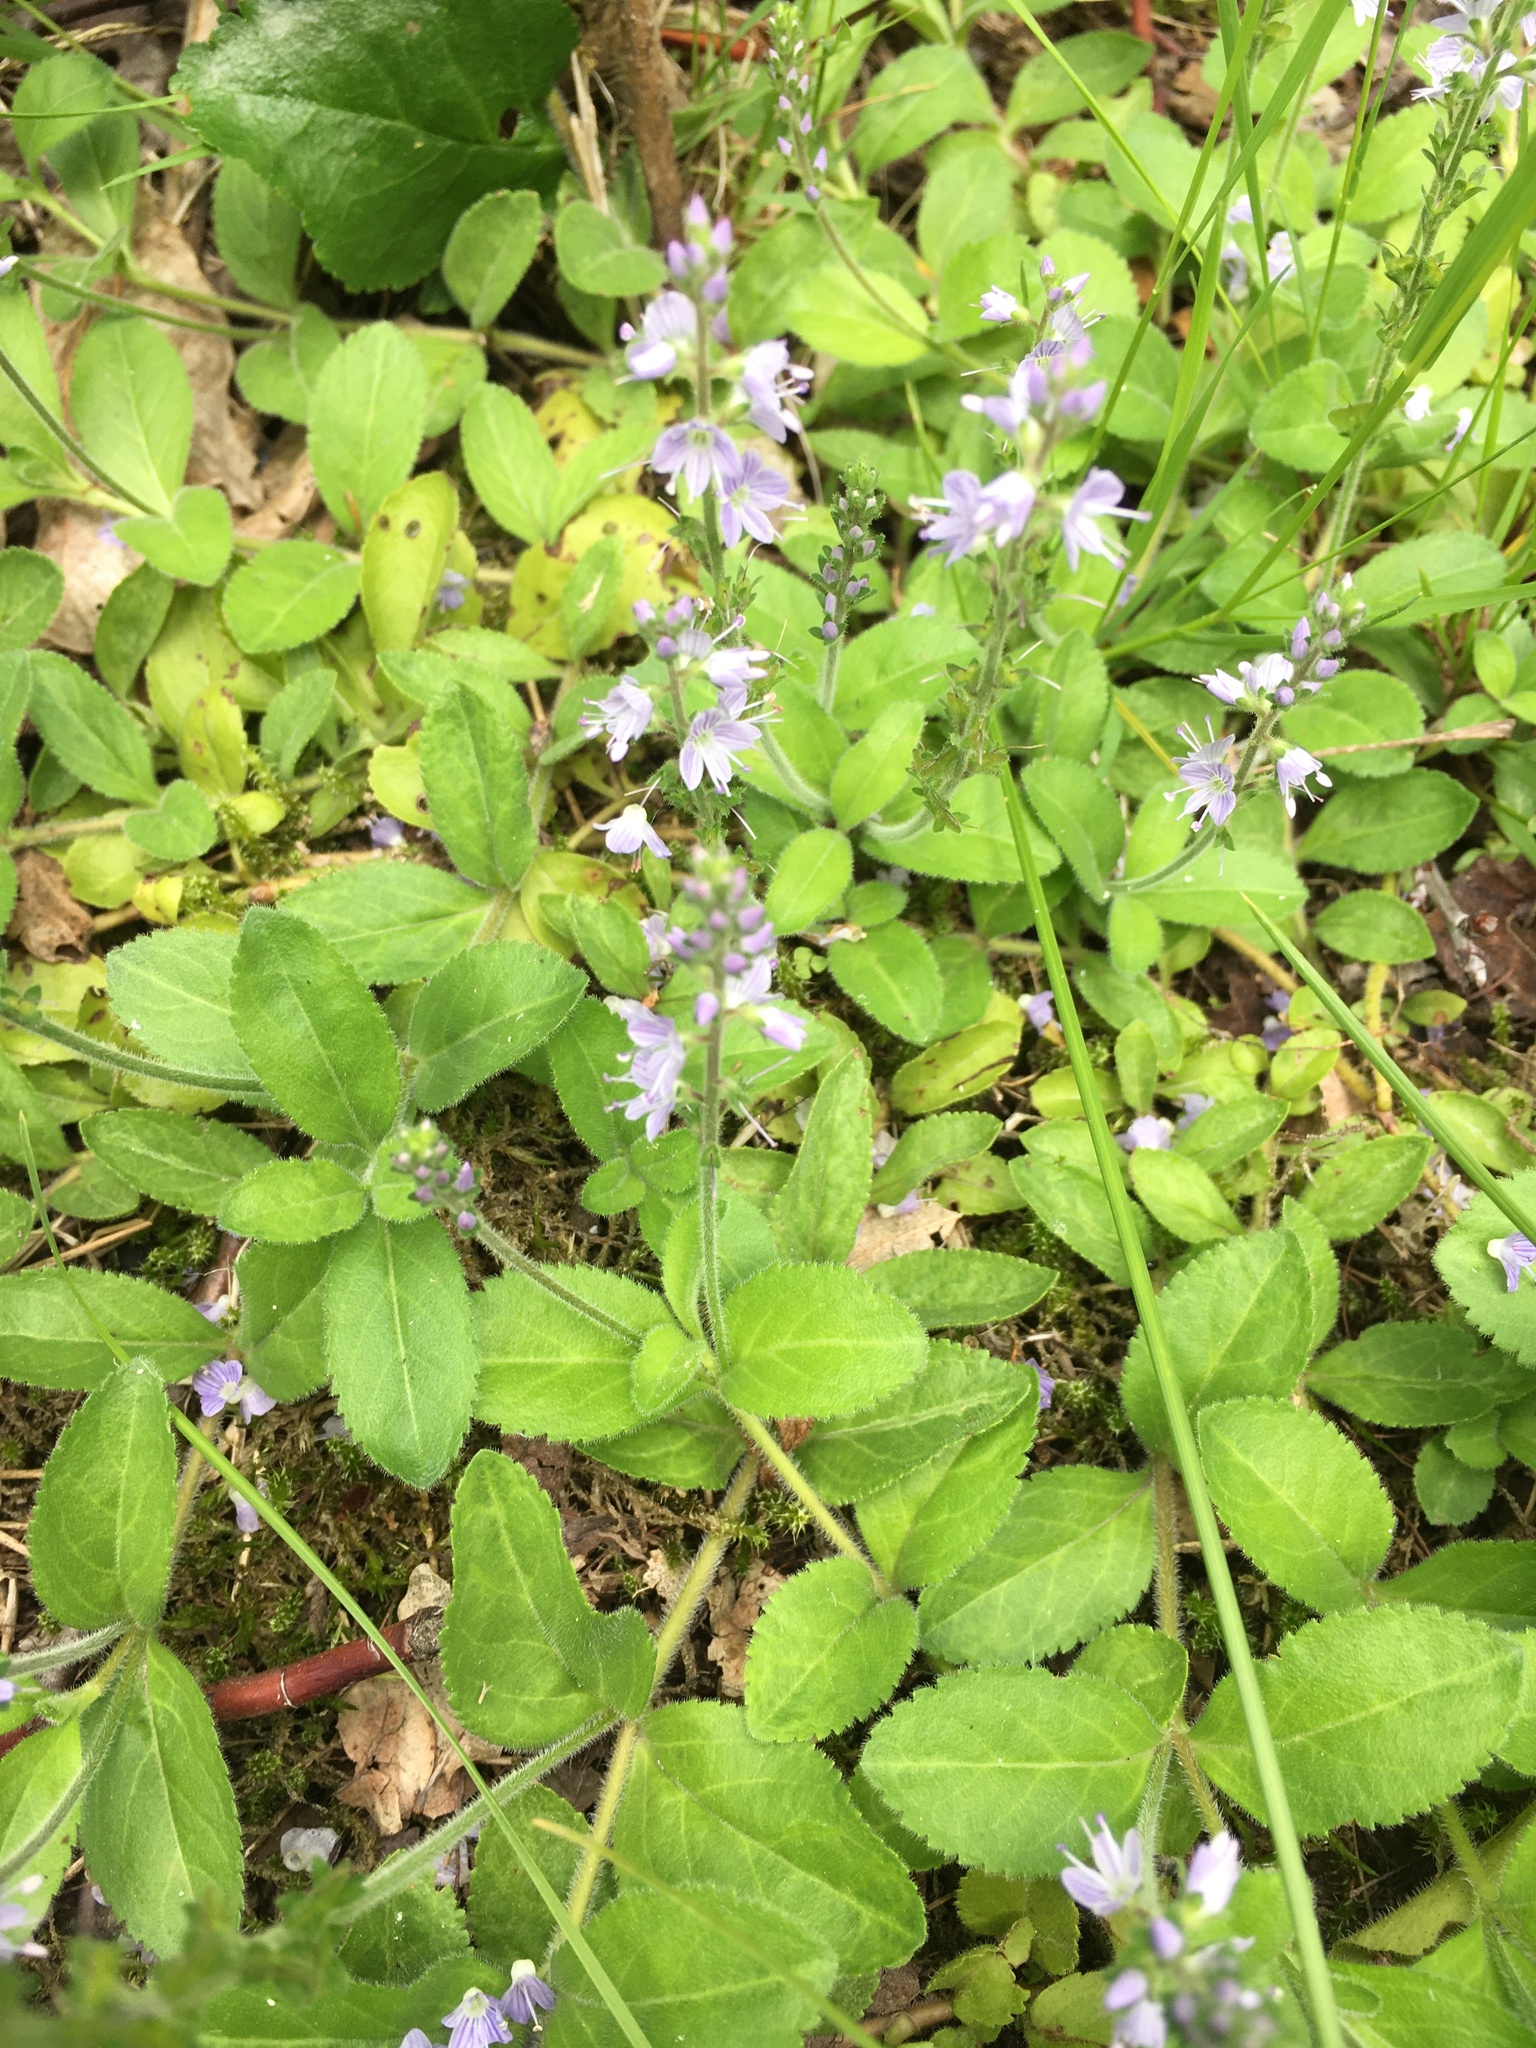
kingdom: Plantae
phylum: Tracheophyta
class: Magnoliopsida
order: Lamiales
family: Plantaginaceae
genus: Veronica
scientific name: Veronica officinalis
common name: Common speedwell
